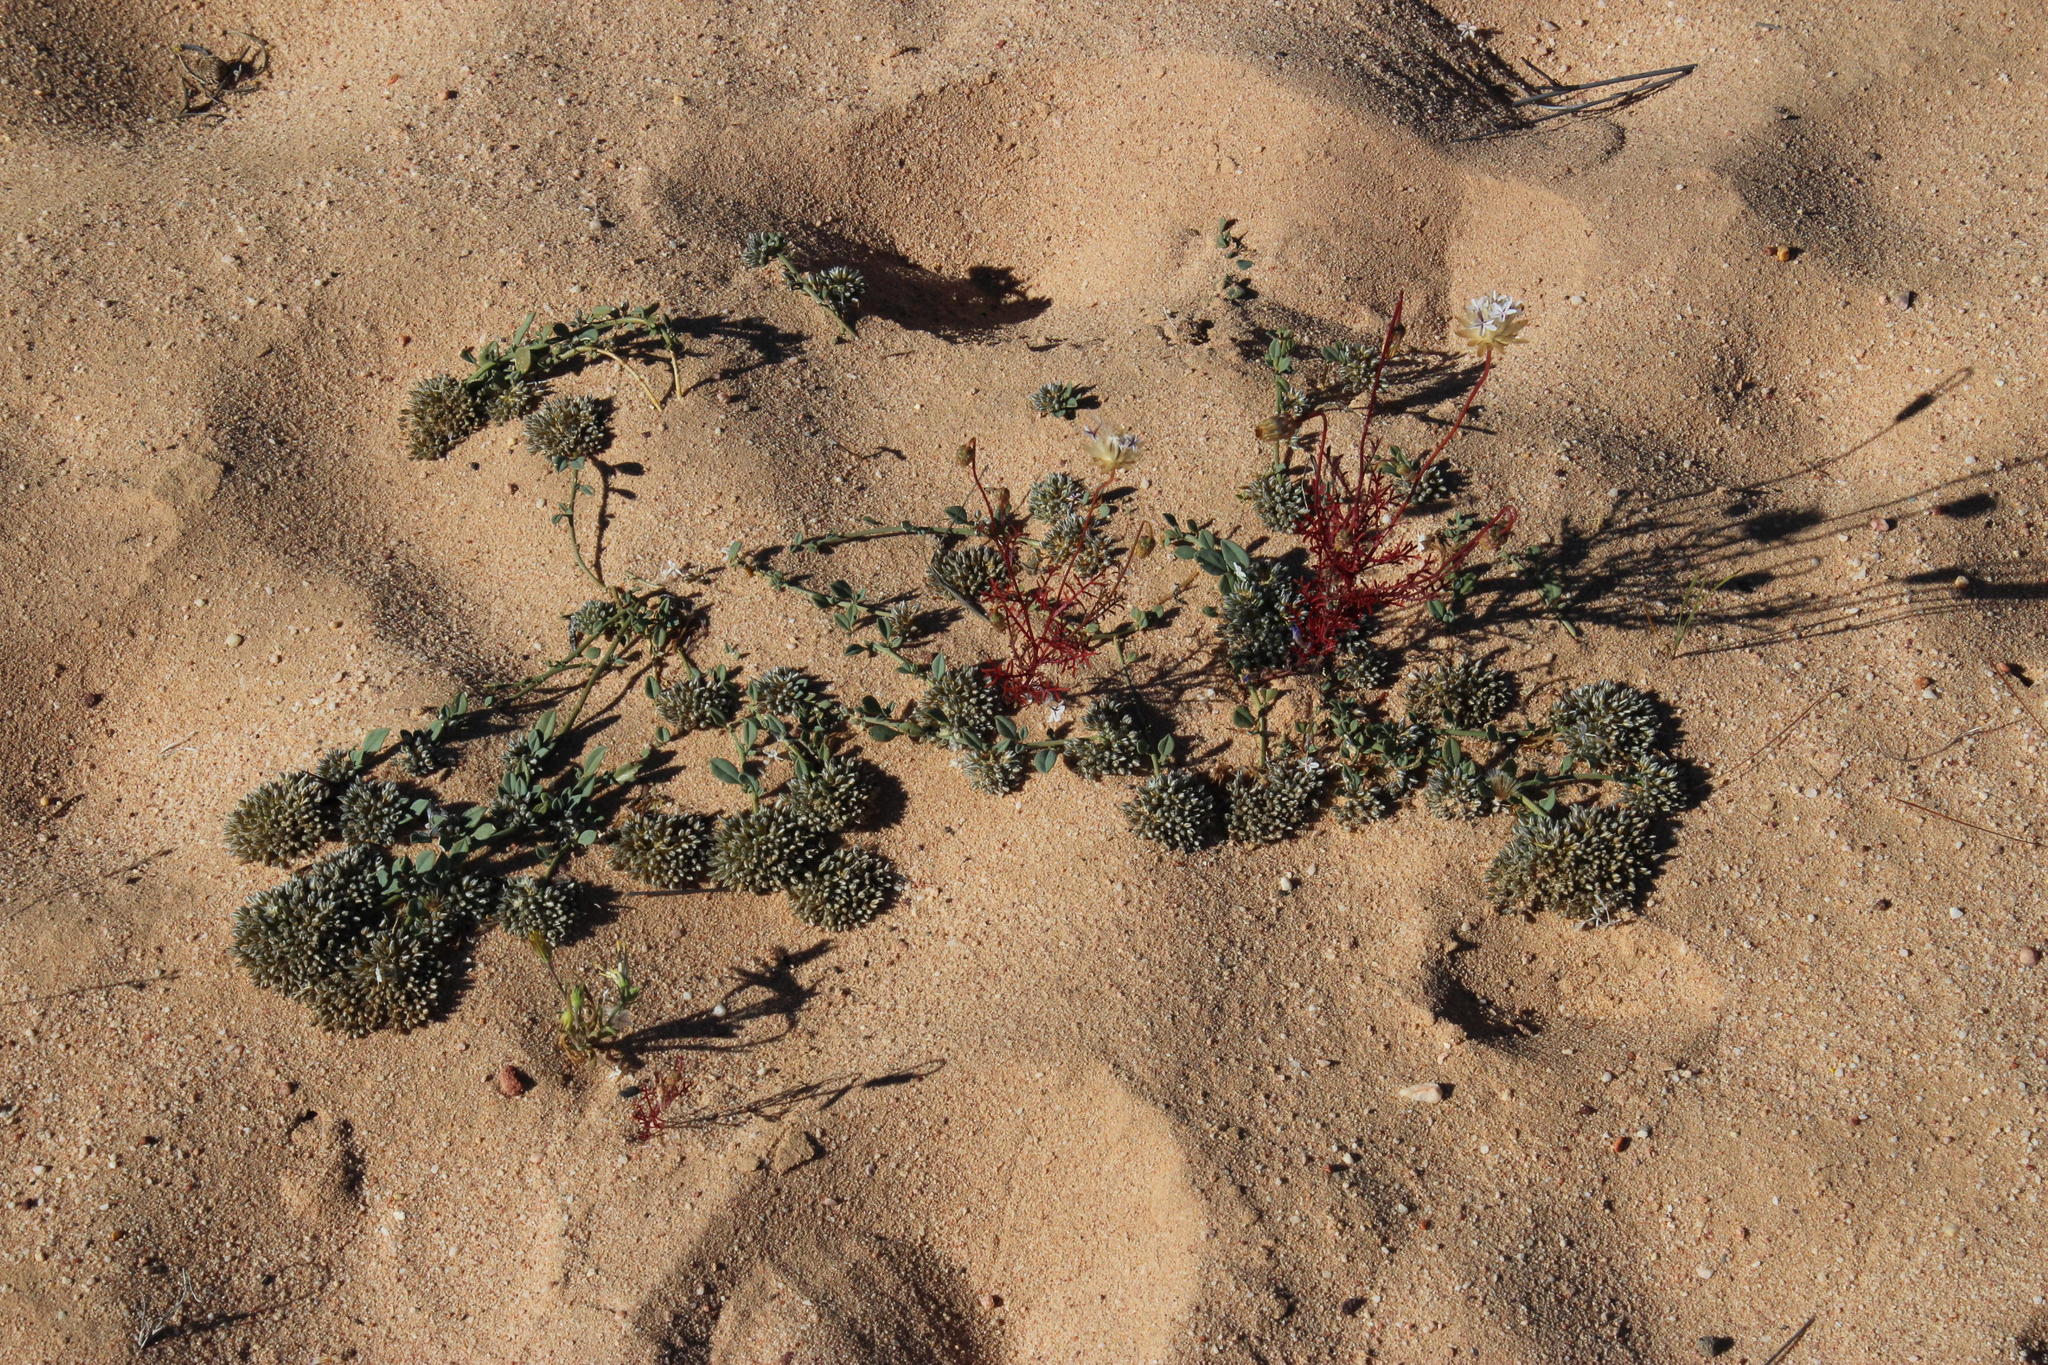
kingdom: Plantae
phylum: Tracheophyta
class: Magnoliopsida
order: Caryophyllales
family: Limeaceae
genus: Limeum
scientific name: Limeum africanum
